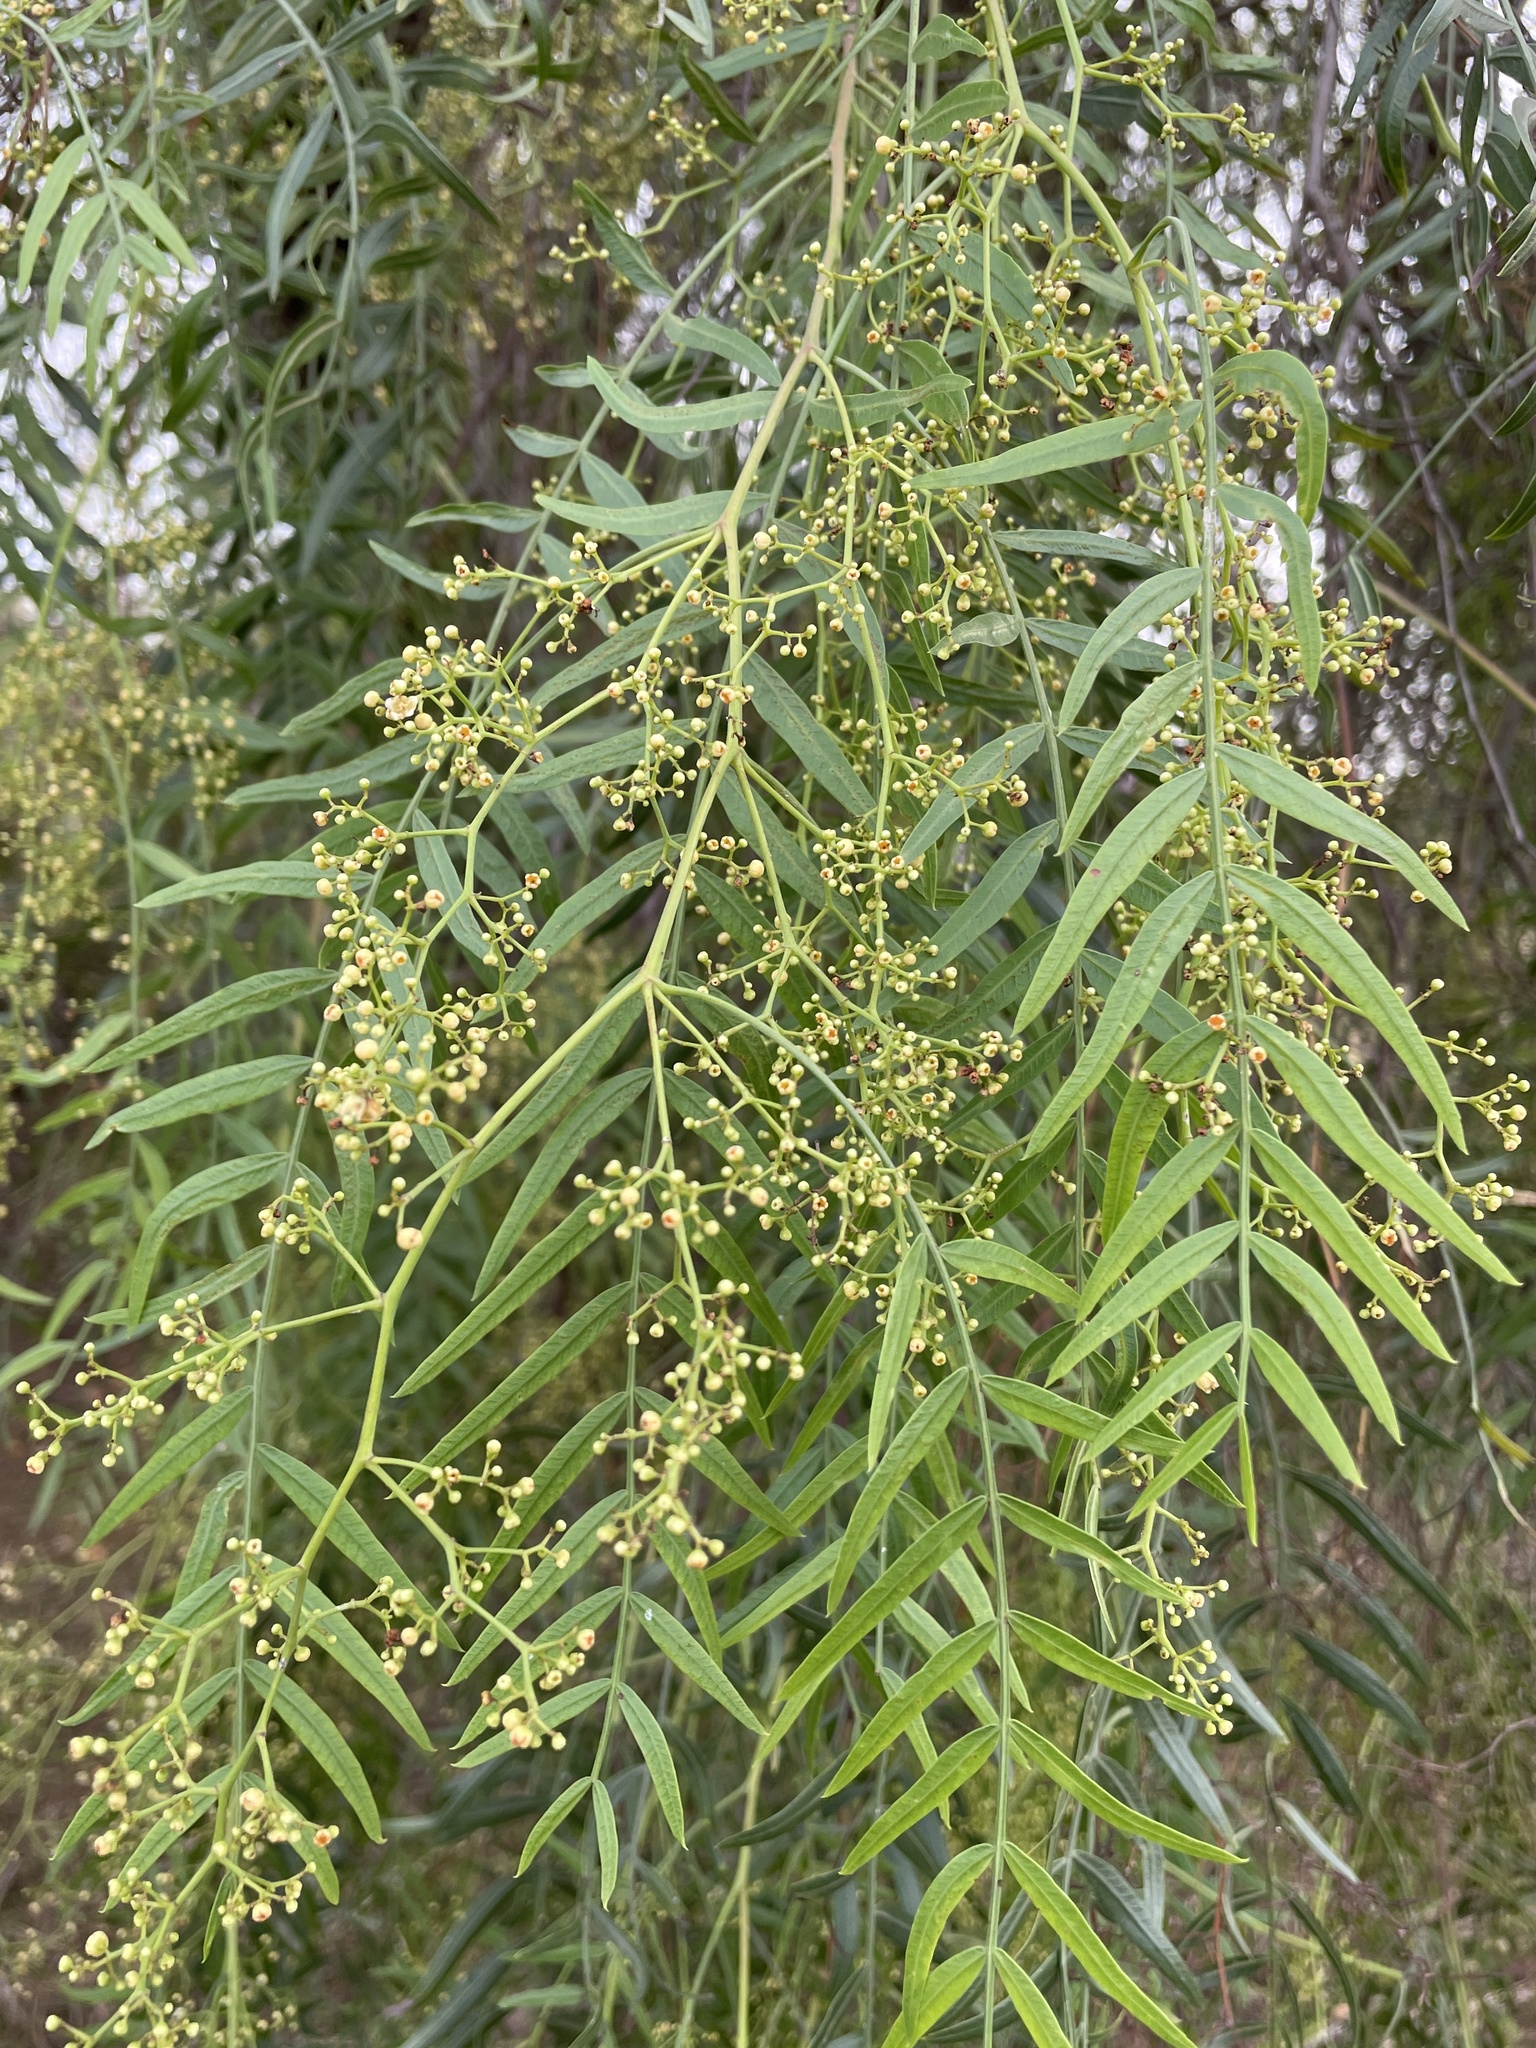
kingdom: Plantae
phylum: Tracheophyta
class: Magnoliopsida
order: Sapindales
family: Anacardiaceae
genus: Schinus
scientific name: Schinus molle
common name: Peruvian peppertree
